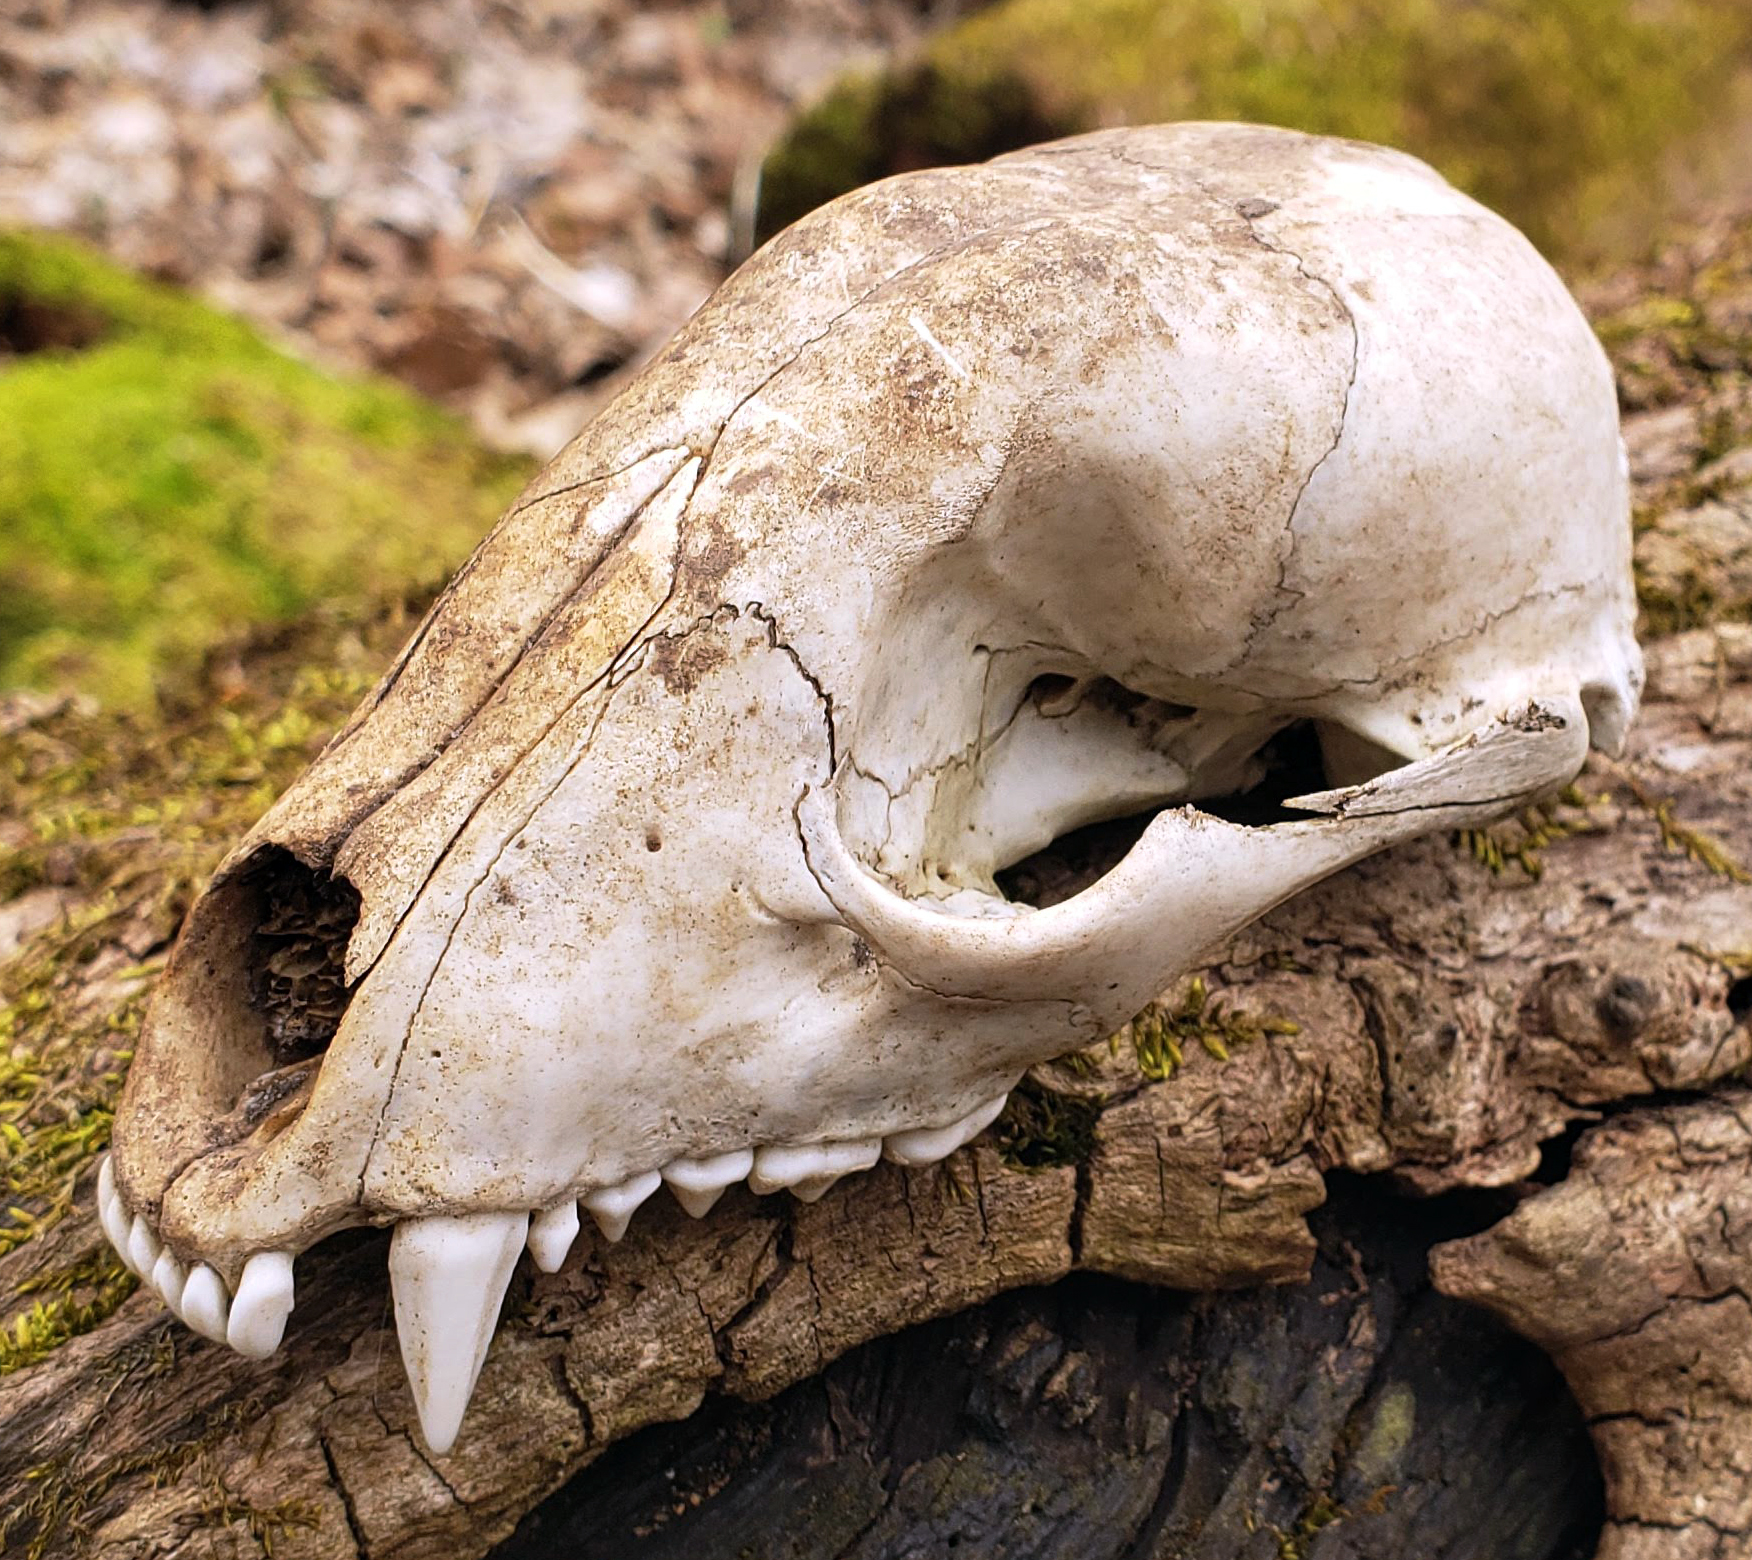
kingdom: Animalia
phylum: Chordata
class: Mammalia
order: Carnivora
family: Procyonidae
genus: Procyon
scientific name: Procyon lotor
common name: Raccoon
